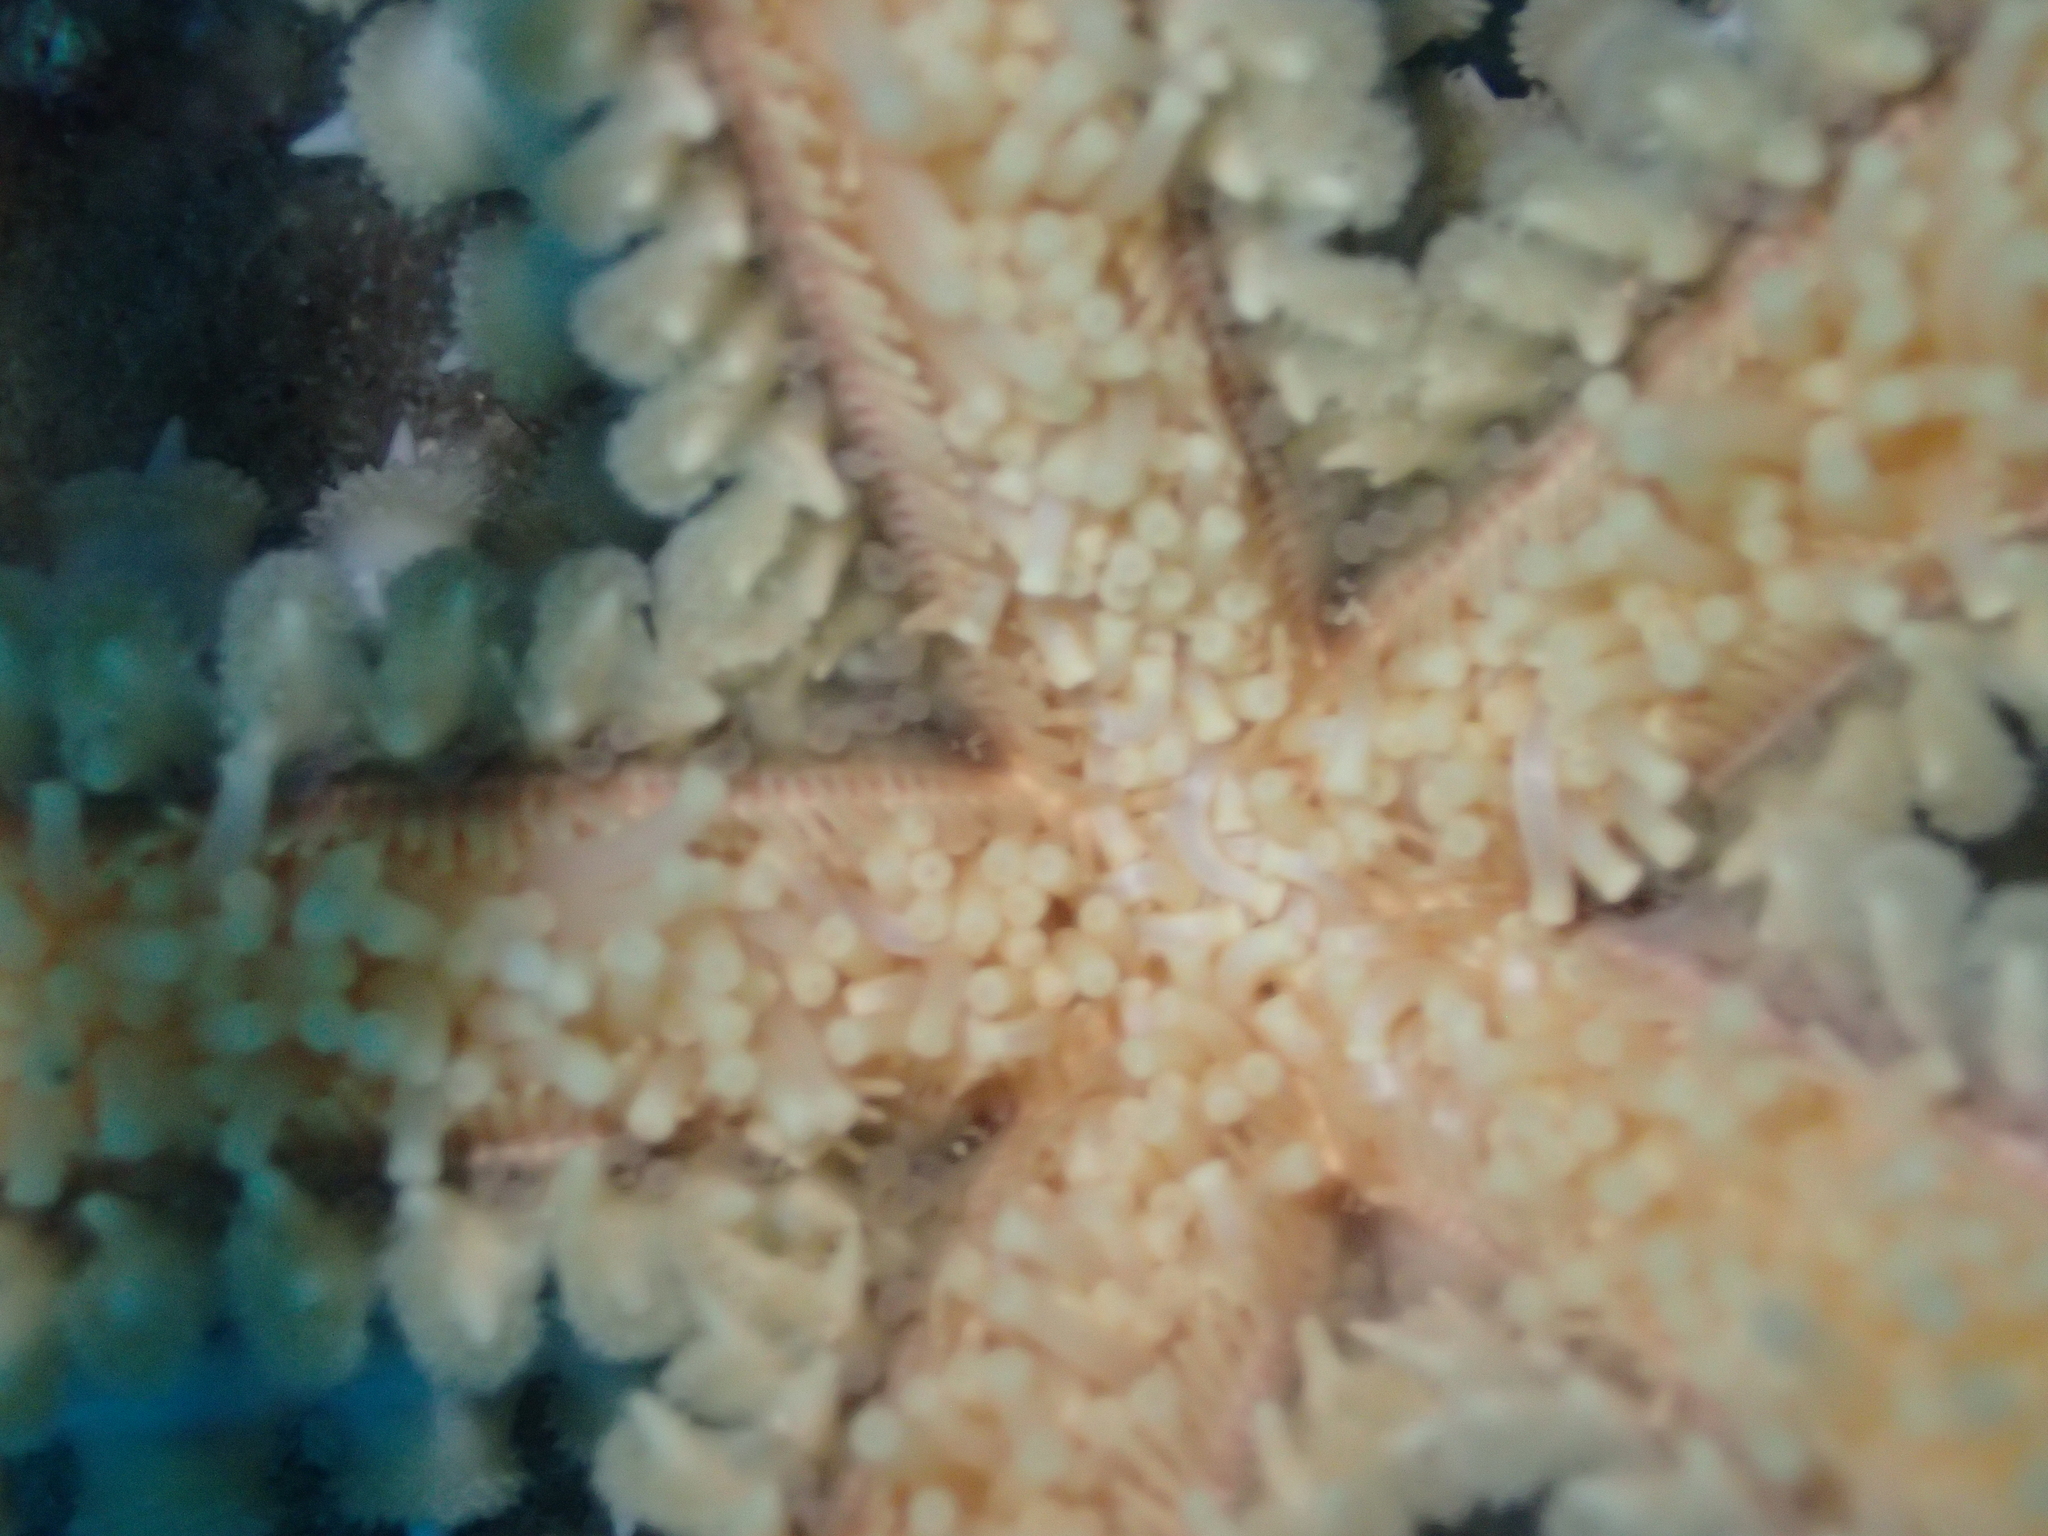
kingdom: Animalia
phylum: Echinodermata
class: Asteroidea
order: Forcipulatida
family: Asteriidae
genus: Marthasterias
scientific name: Marthasterias glacialis
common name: Spiny starfish
